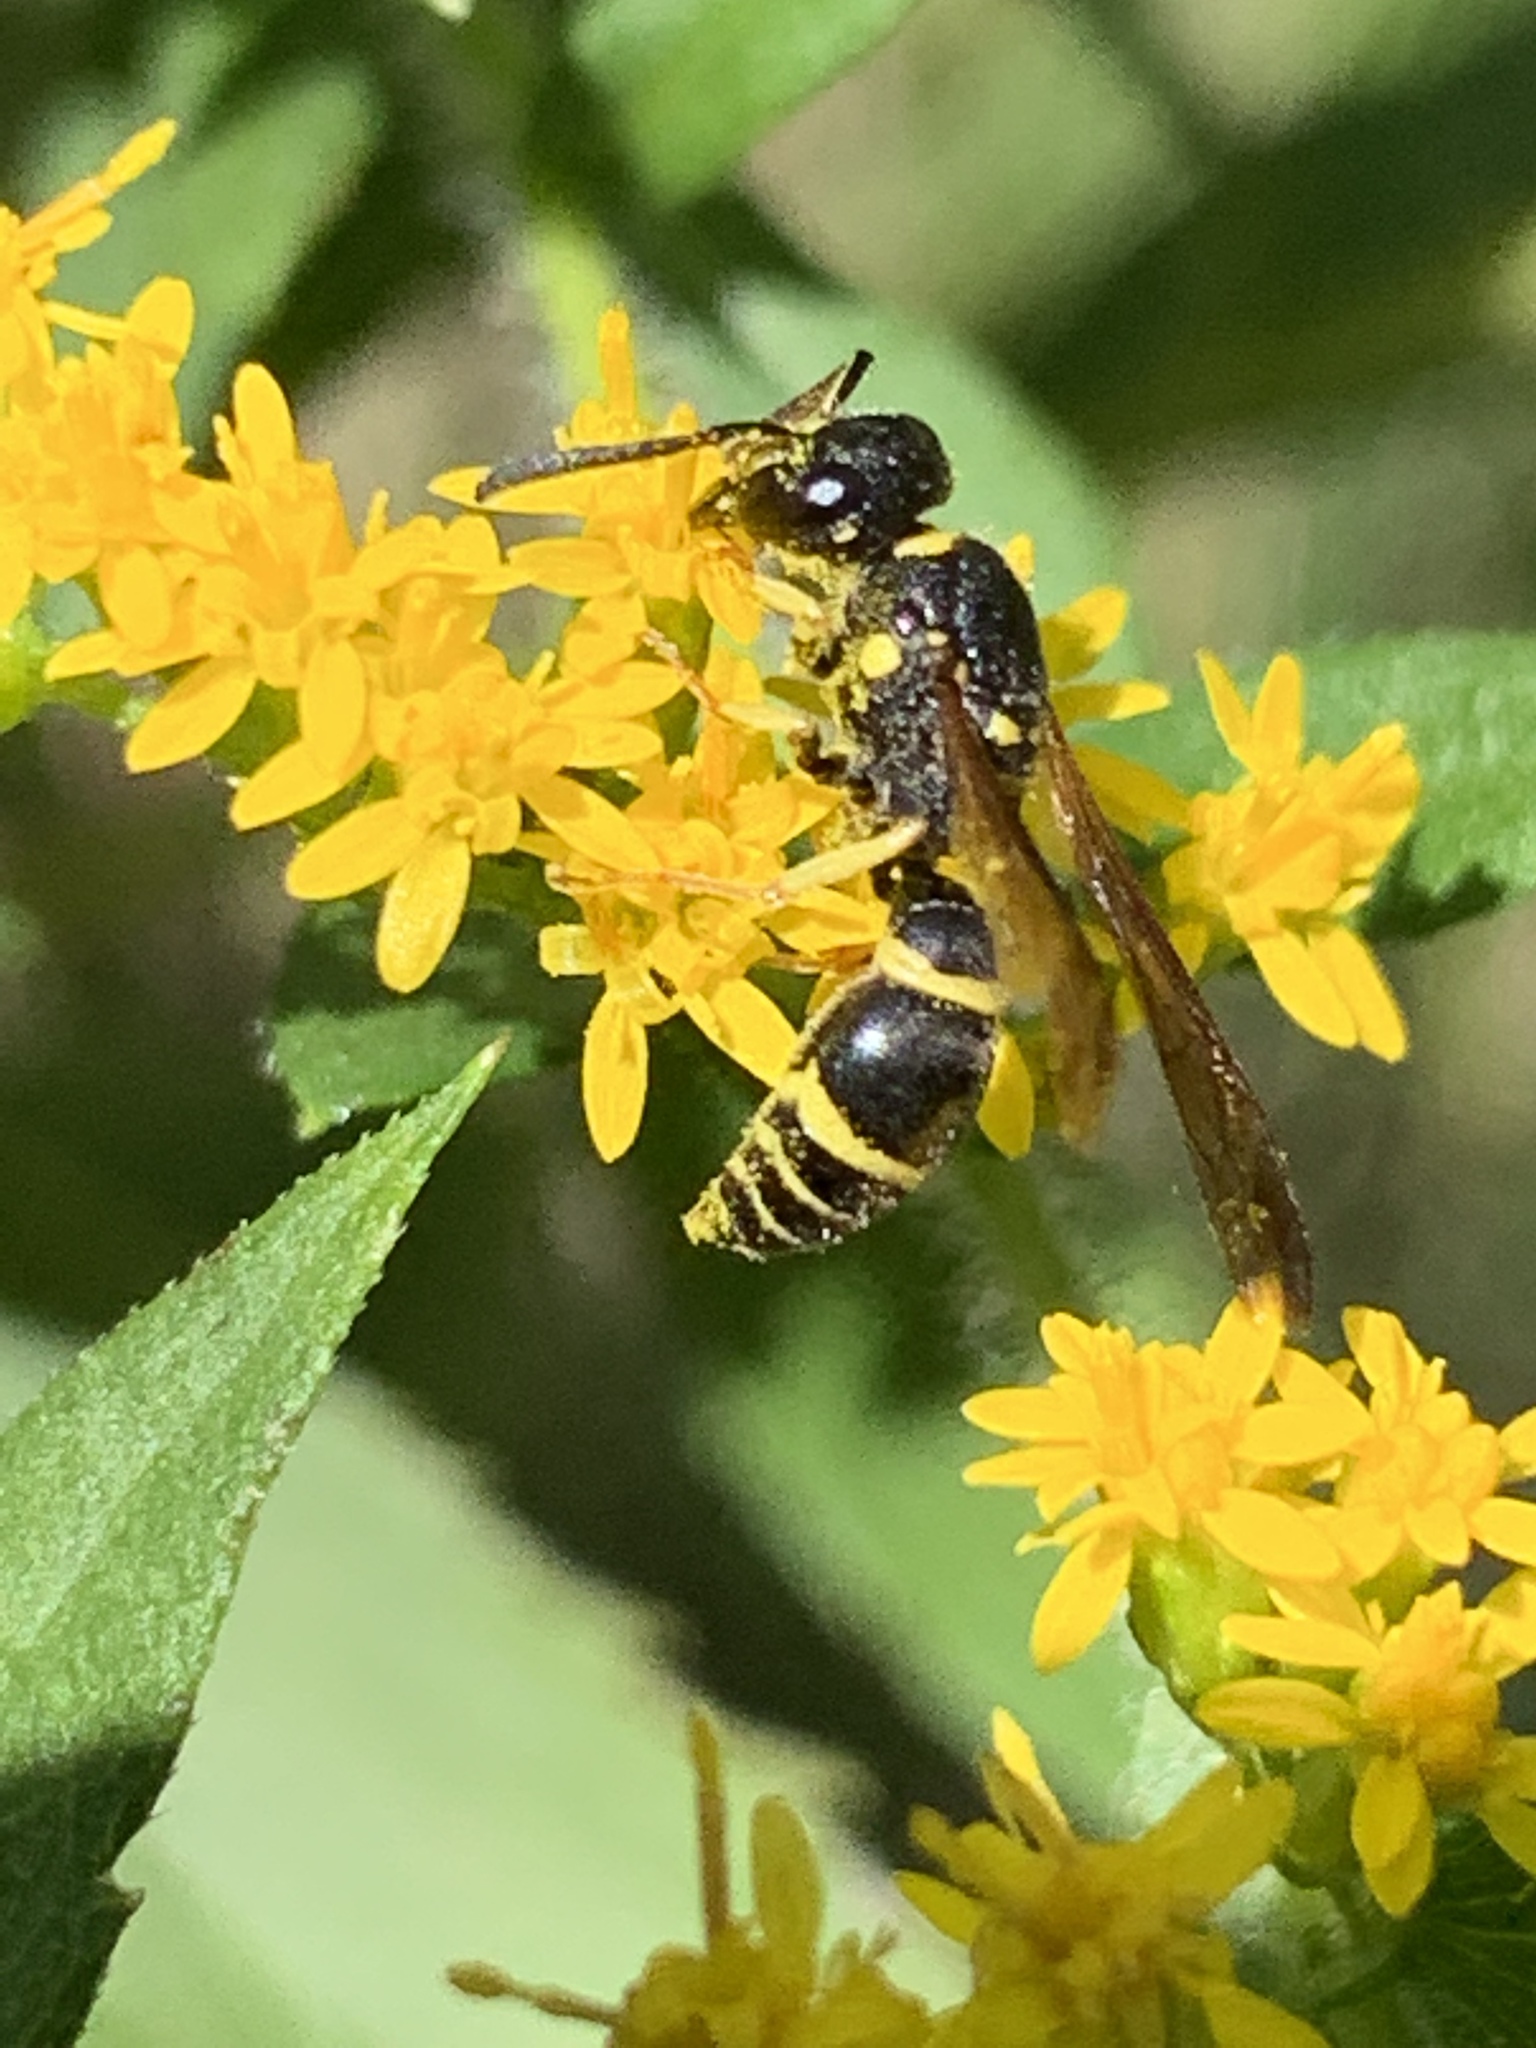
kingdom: Animalia
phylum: Arthropoda
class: Insecta
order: Hymenoptera
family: Vespidae
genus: Ancistrocerus
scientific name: Ancistrocerus adiabatus
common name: Bramble mason wasp
